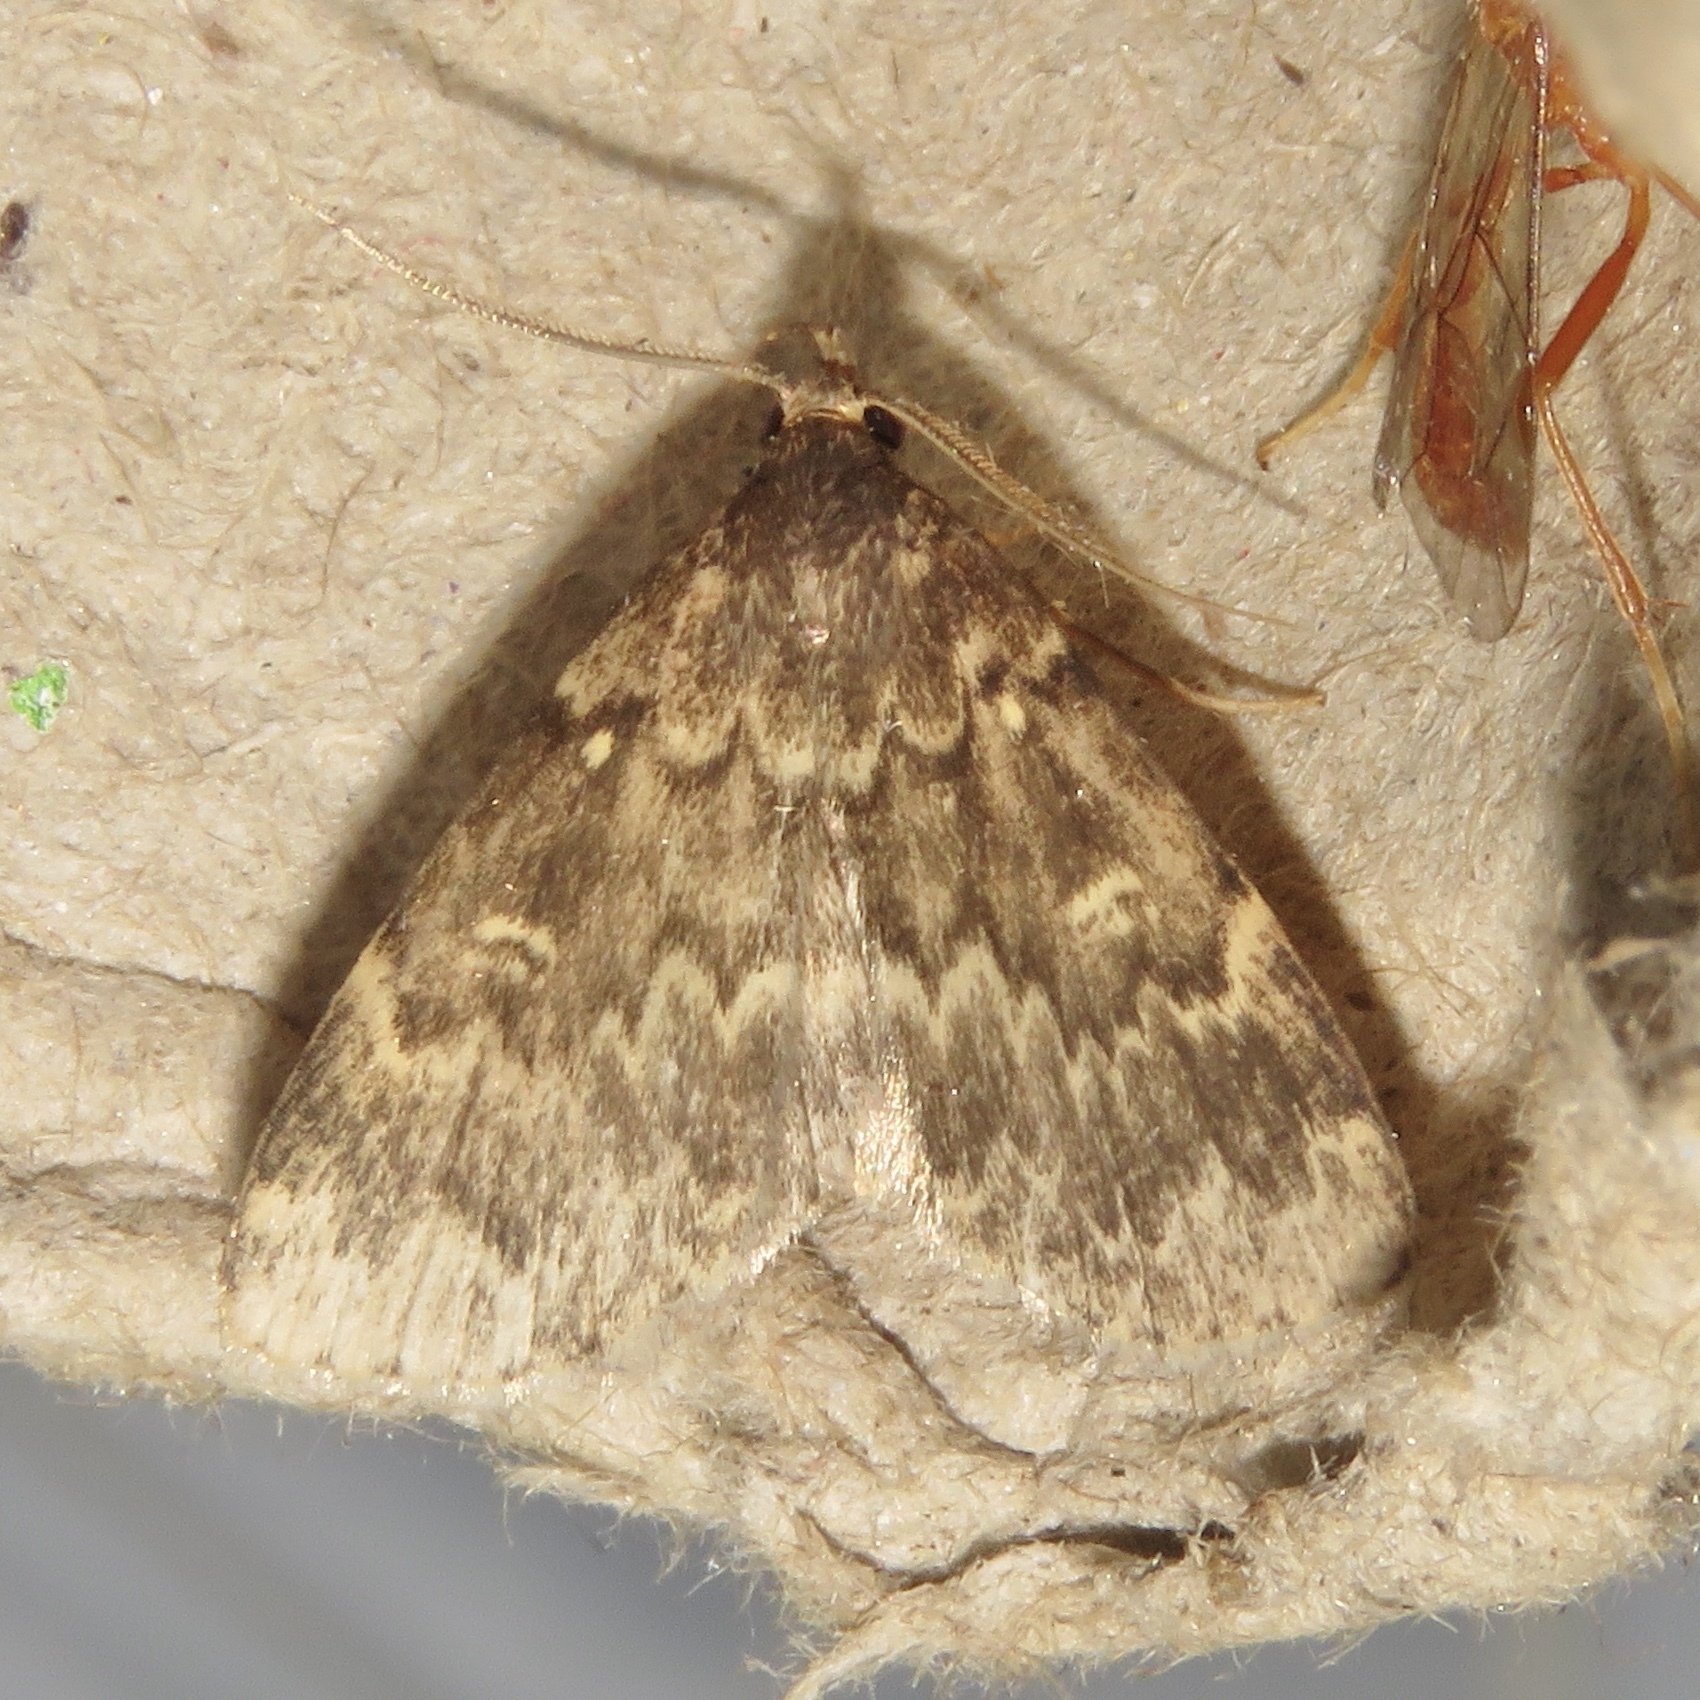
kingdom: Animalia
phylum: Arthropoda
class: Insecta
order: Lepidoptera
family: Erebidae
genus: Idia
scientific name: Idia lubricalis
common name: Twin-striped tabby
